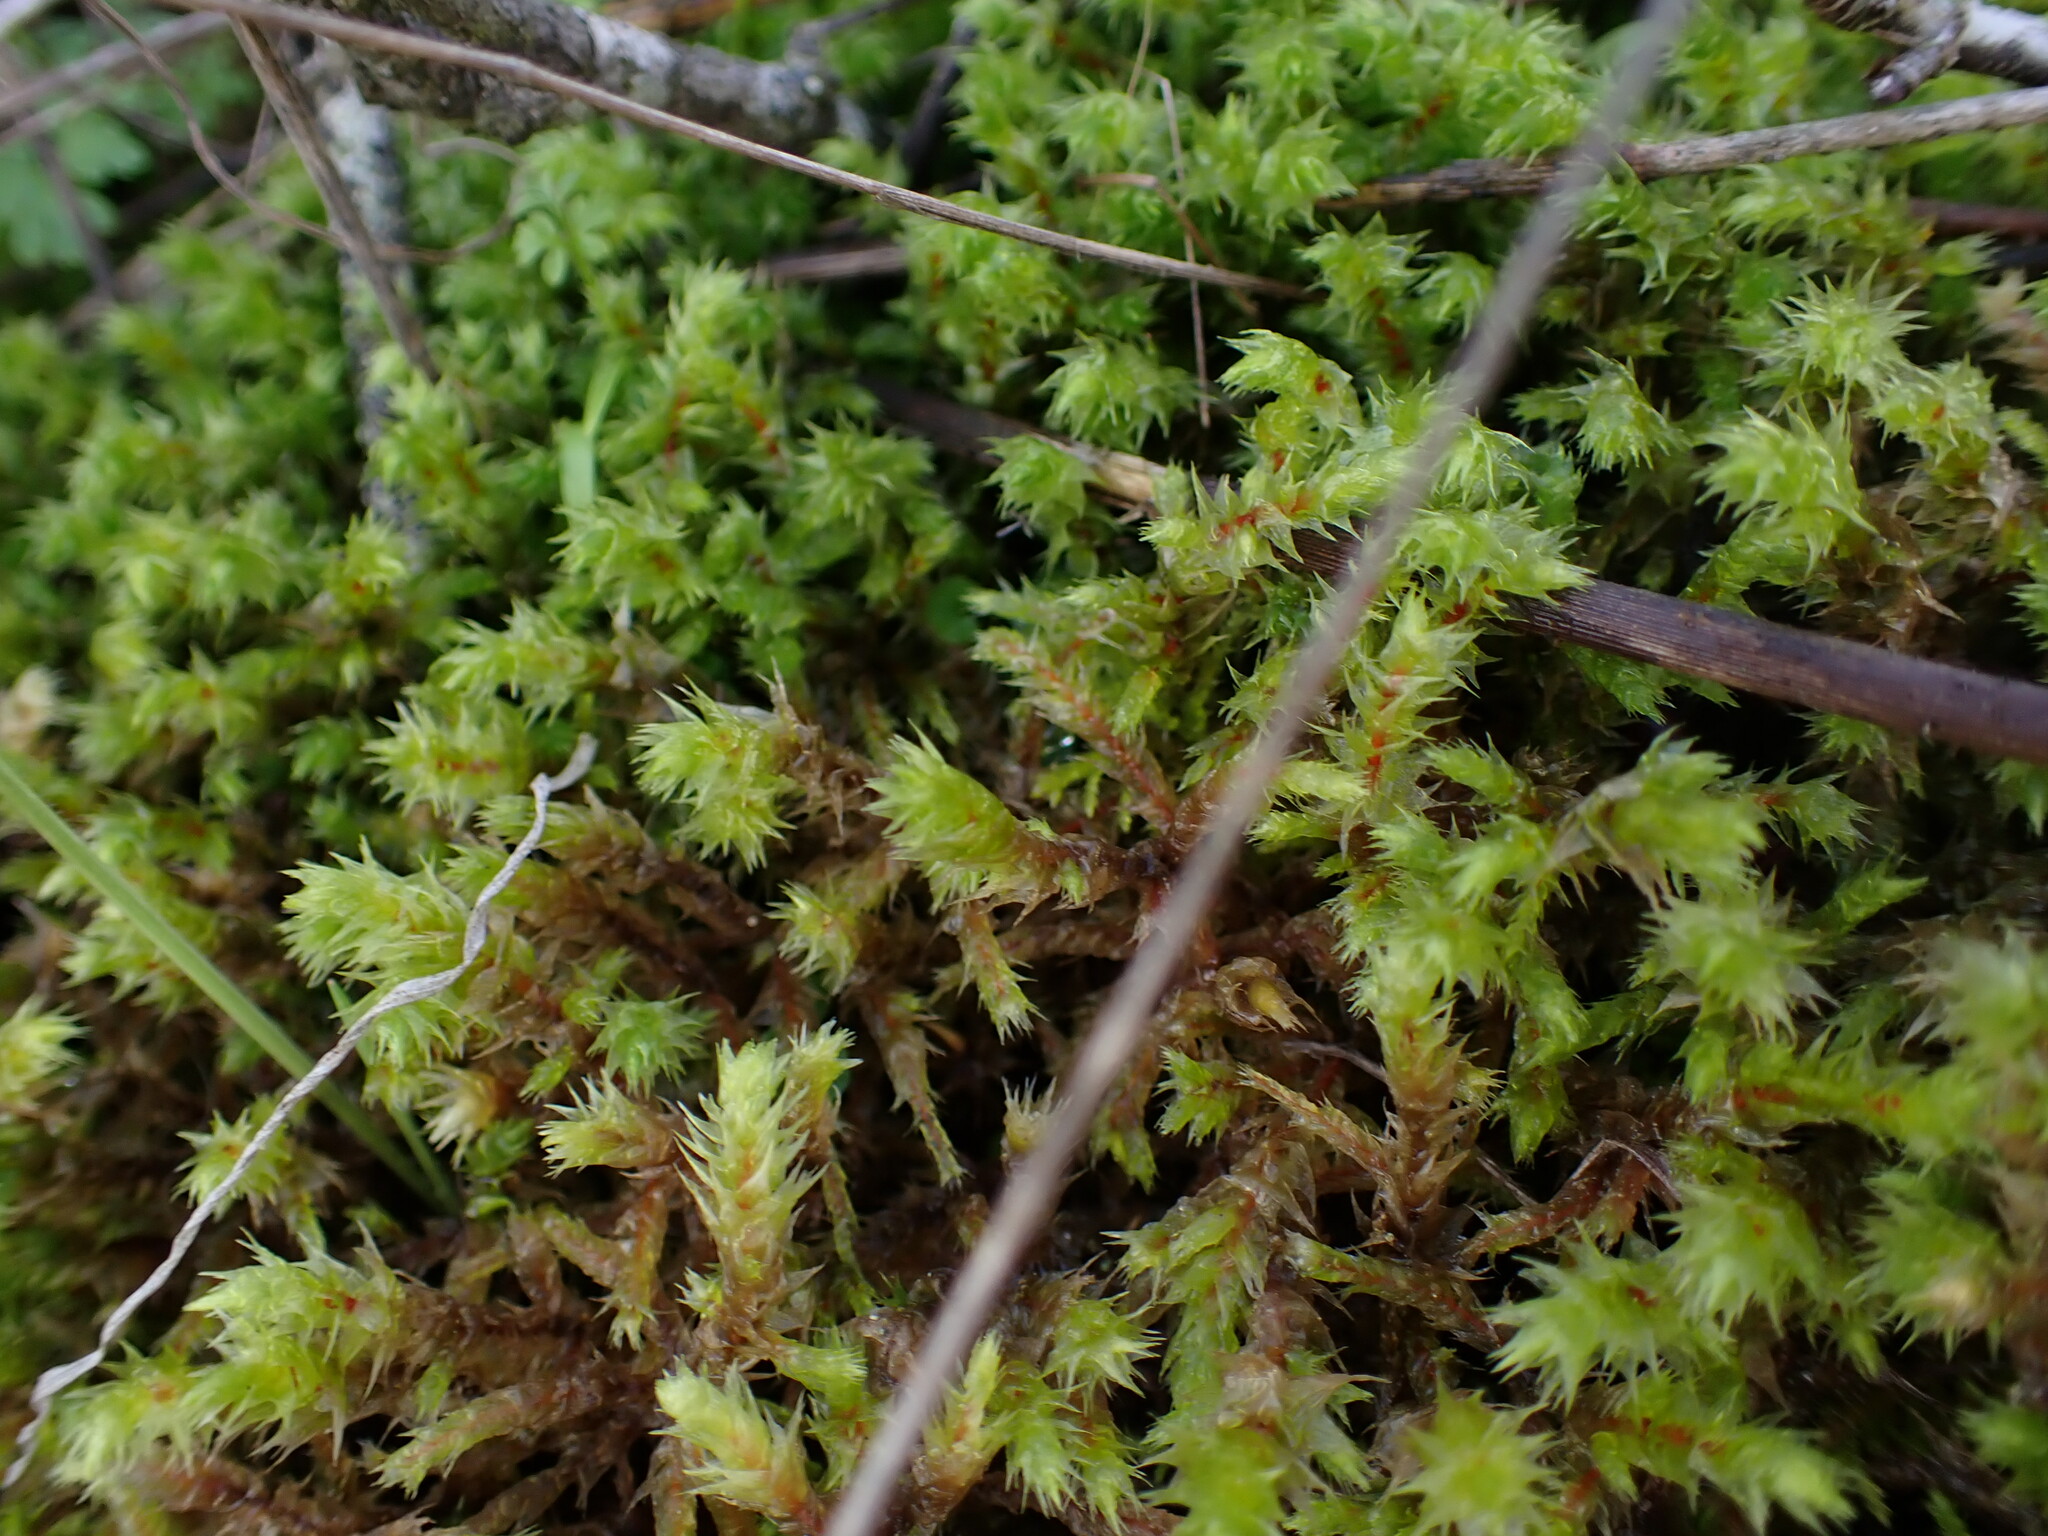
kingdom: Plantae
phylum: Bryophyta
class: Bryopsida
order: Hypnales
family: Hylocomiaceae
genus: Hylocomiadelphus
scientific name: Hylocomiadelphus triquetrus
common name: Rough goose neck moss
